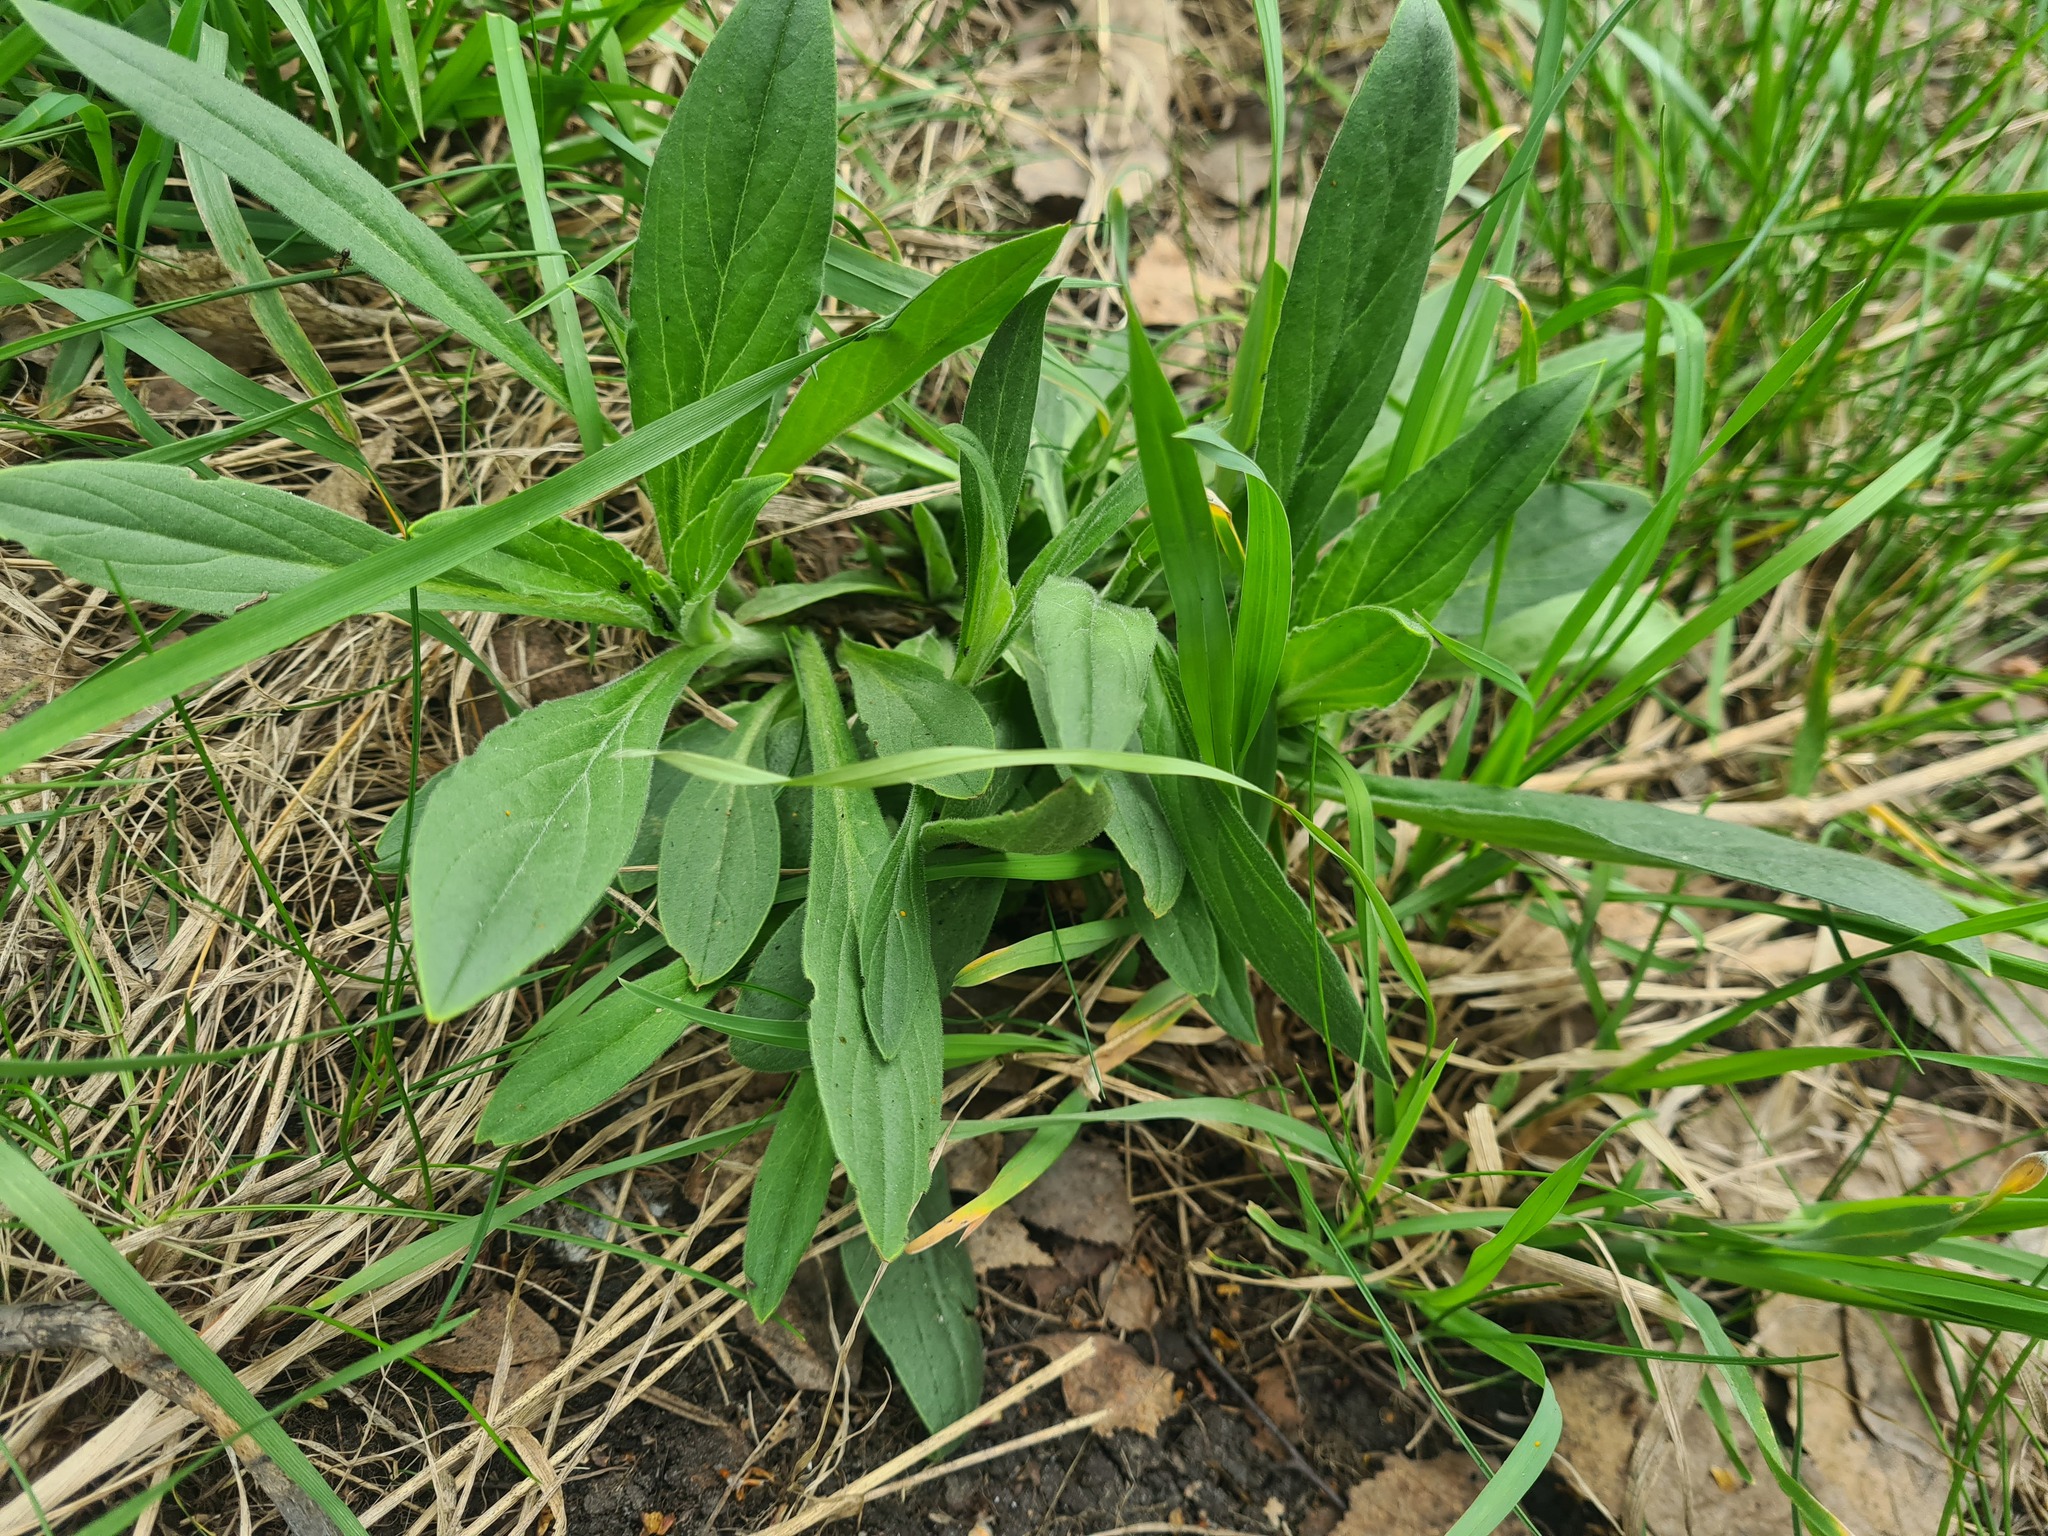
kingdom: Plantae
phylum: Tracheophyta
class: Magnoliopsida
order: Caryophyllales
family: Caryophyllaceae
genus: Silene
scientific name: Silene latifolia
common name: White campion
